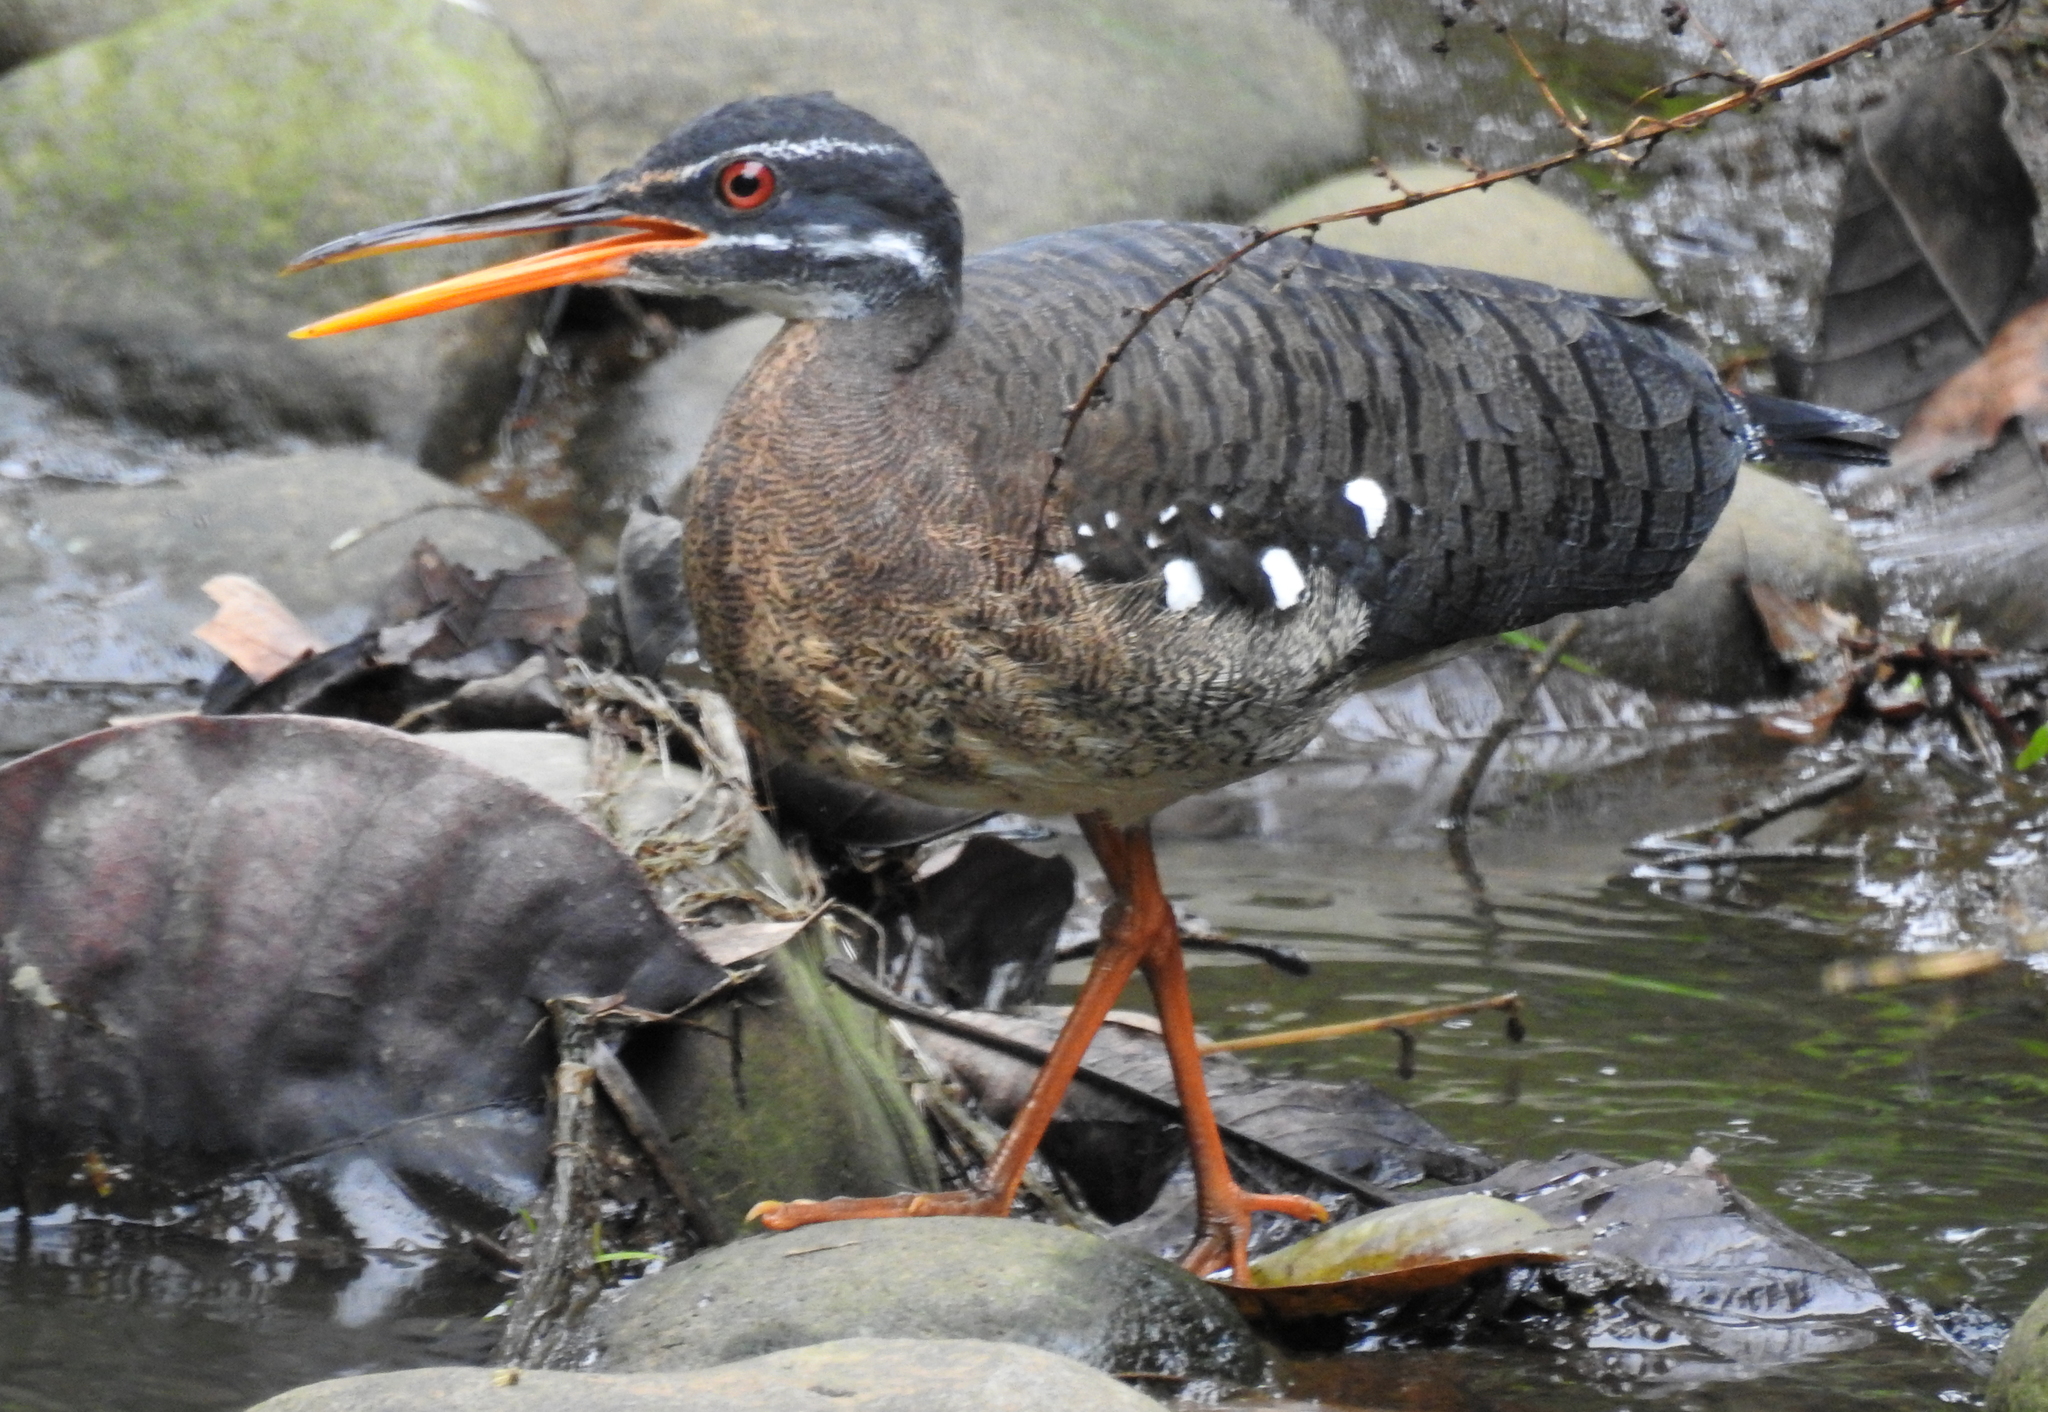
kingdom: Animalia
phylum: Chordata
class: Aves
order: Eurypygiformes
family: Eurypygidae
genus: Eurypyga
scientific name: Eurypyga helias
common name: Sunbittern
